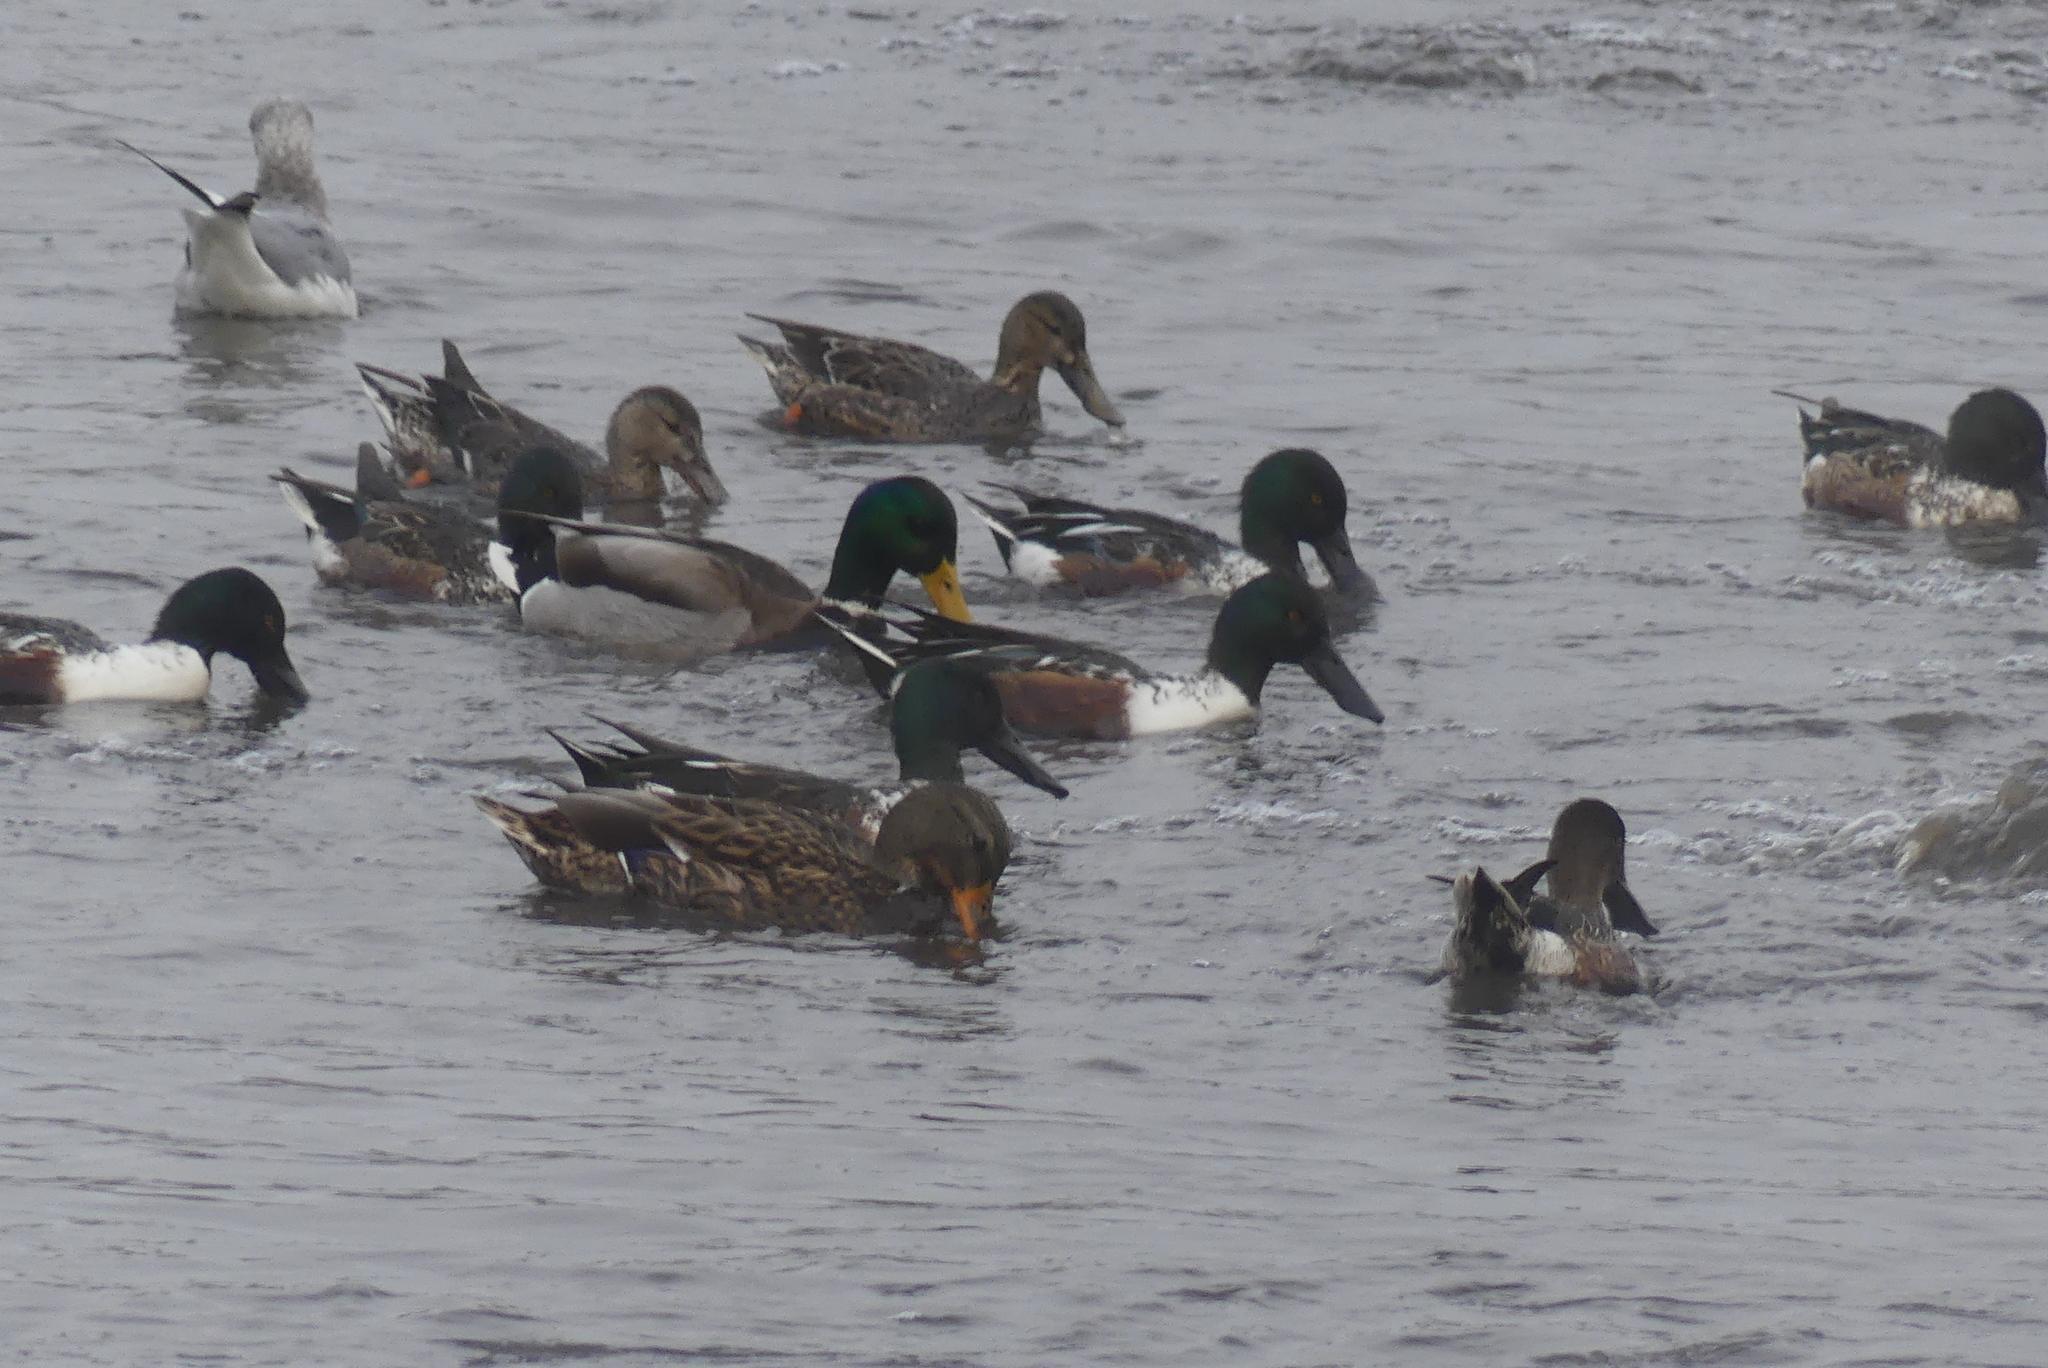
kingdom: Animalia
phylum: Chordata
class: Aves
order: Anseriformes
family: Anatidae
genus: Spatula
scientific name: Spatula clypeata
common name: Northern shoveler
